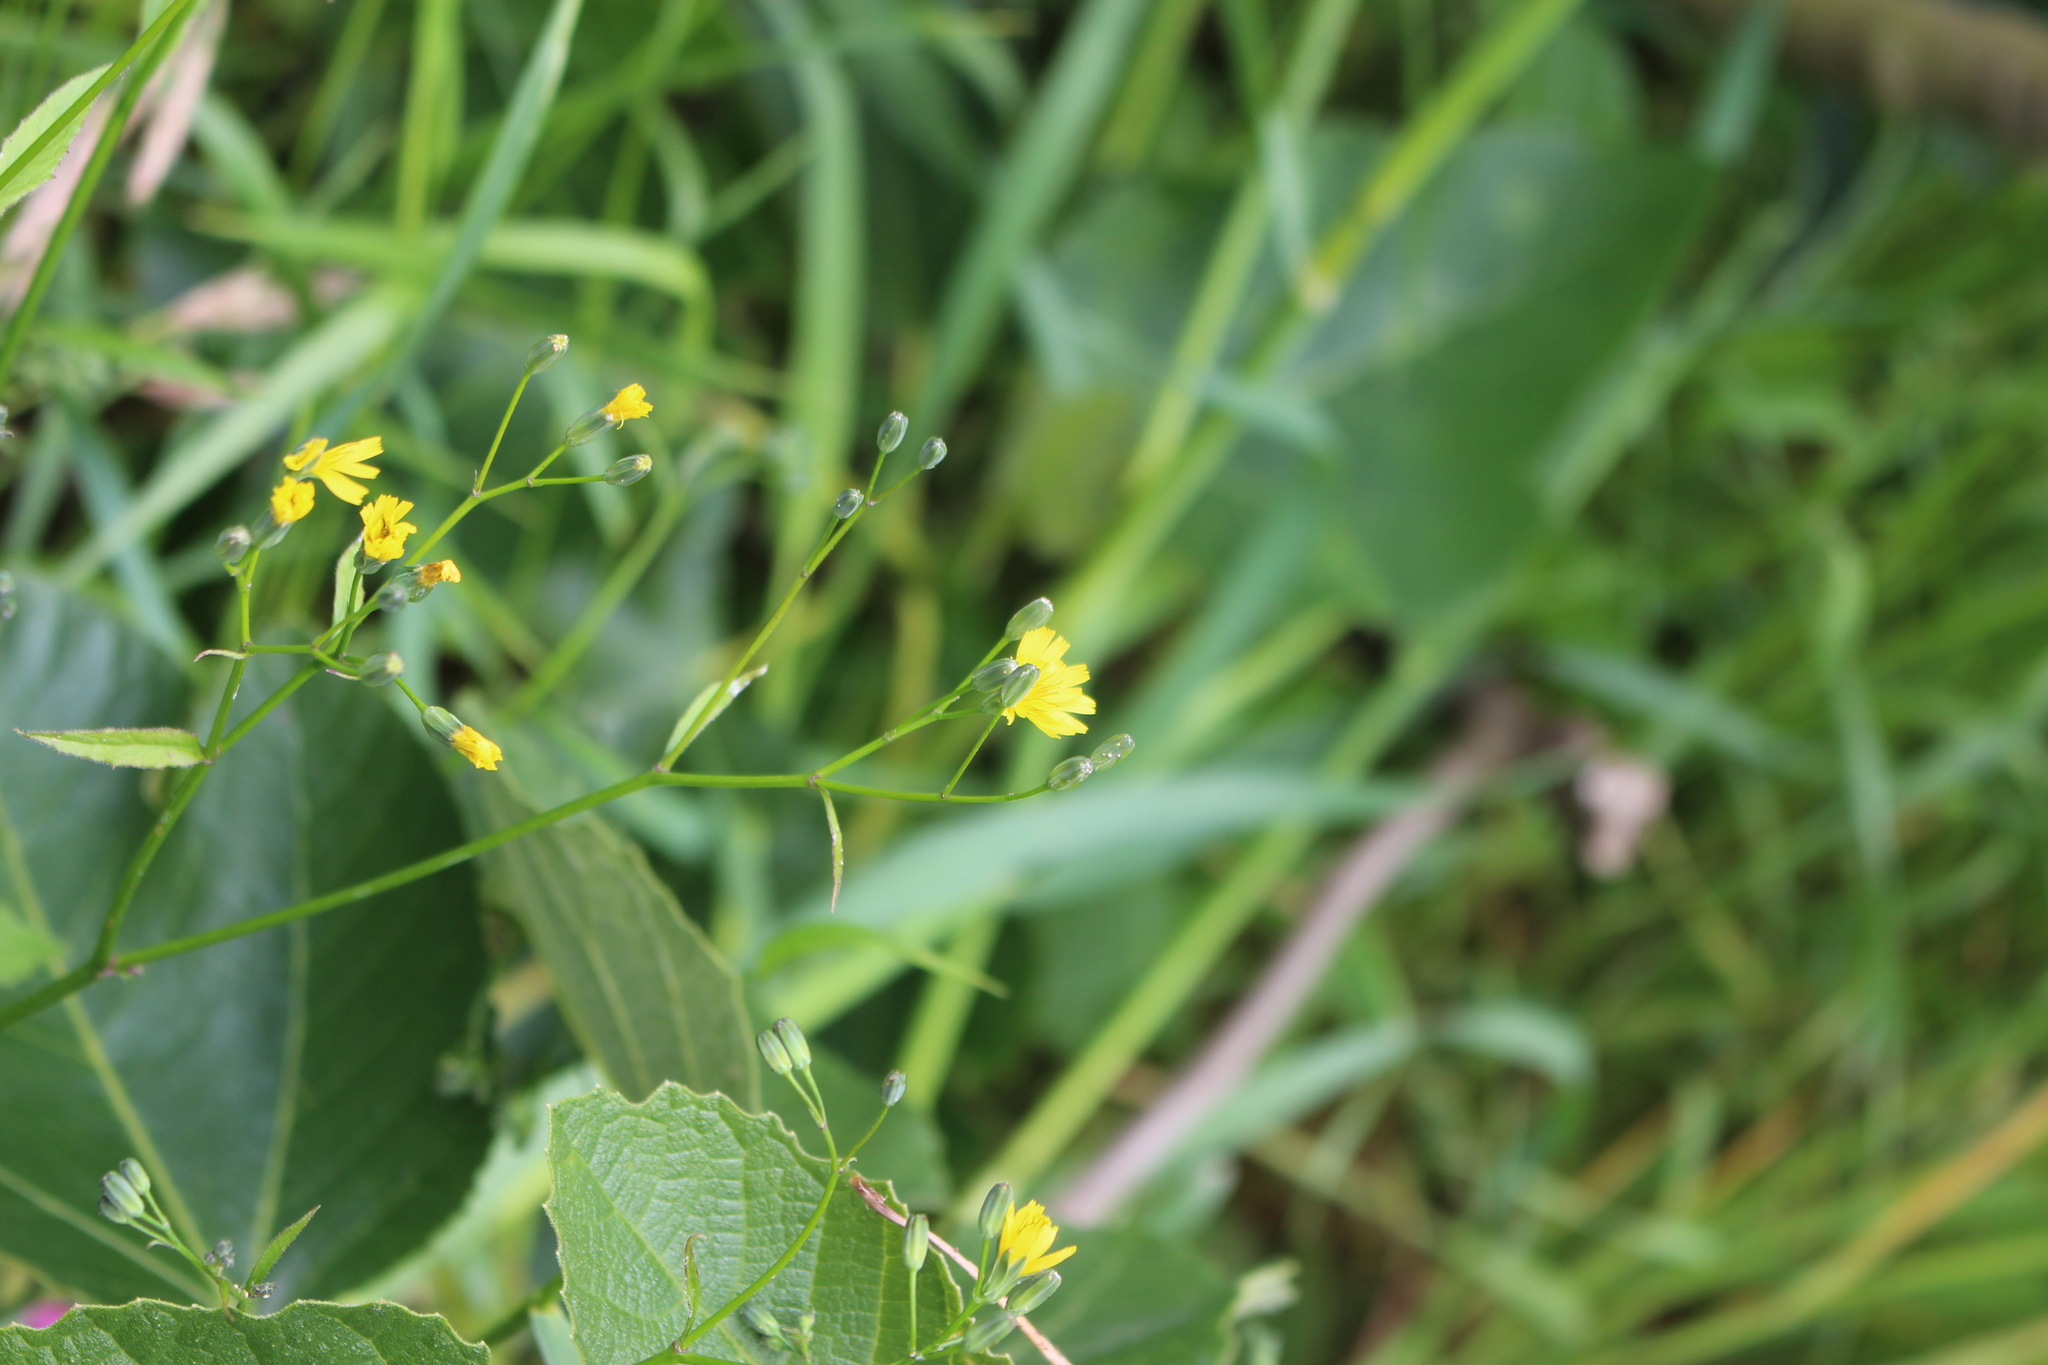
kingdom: Plantae
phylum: Tracheophyta
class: Magnoliopsida
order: Asterales
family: Asteraceae
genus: Lapsana
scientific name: Lapsana communis
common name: Nipplewort
